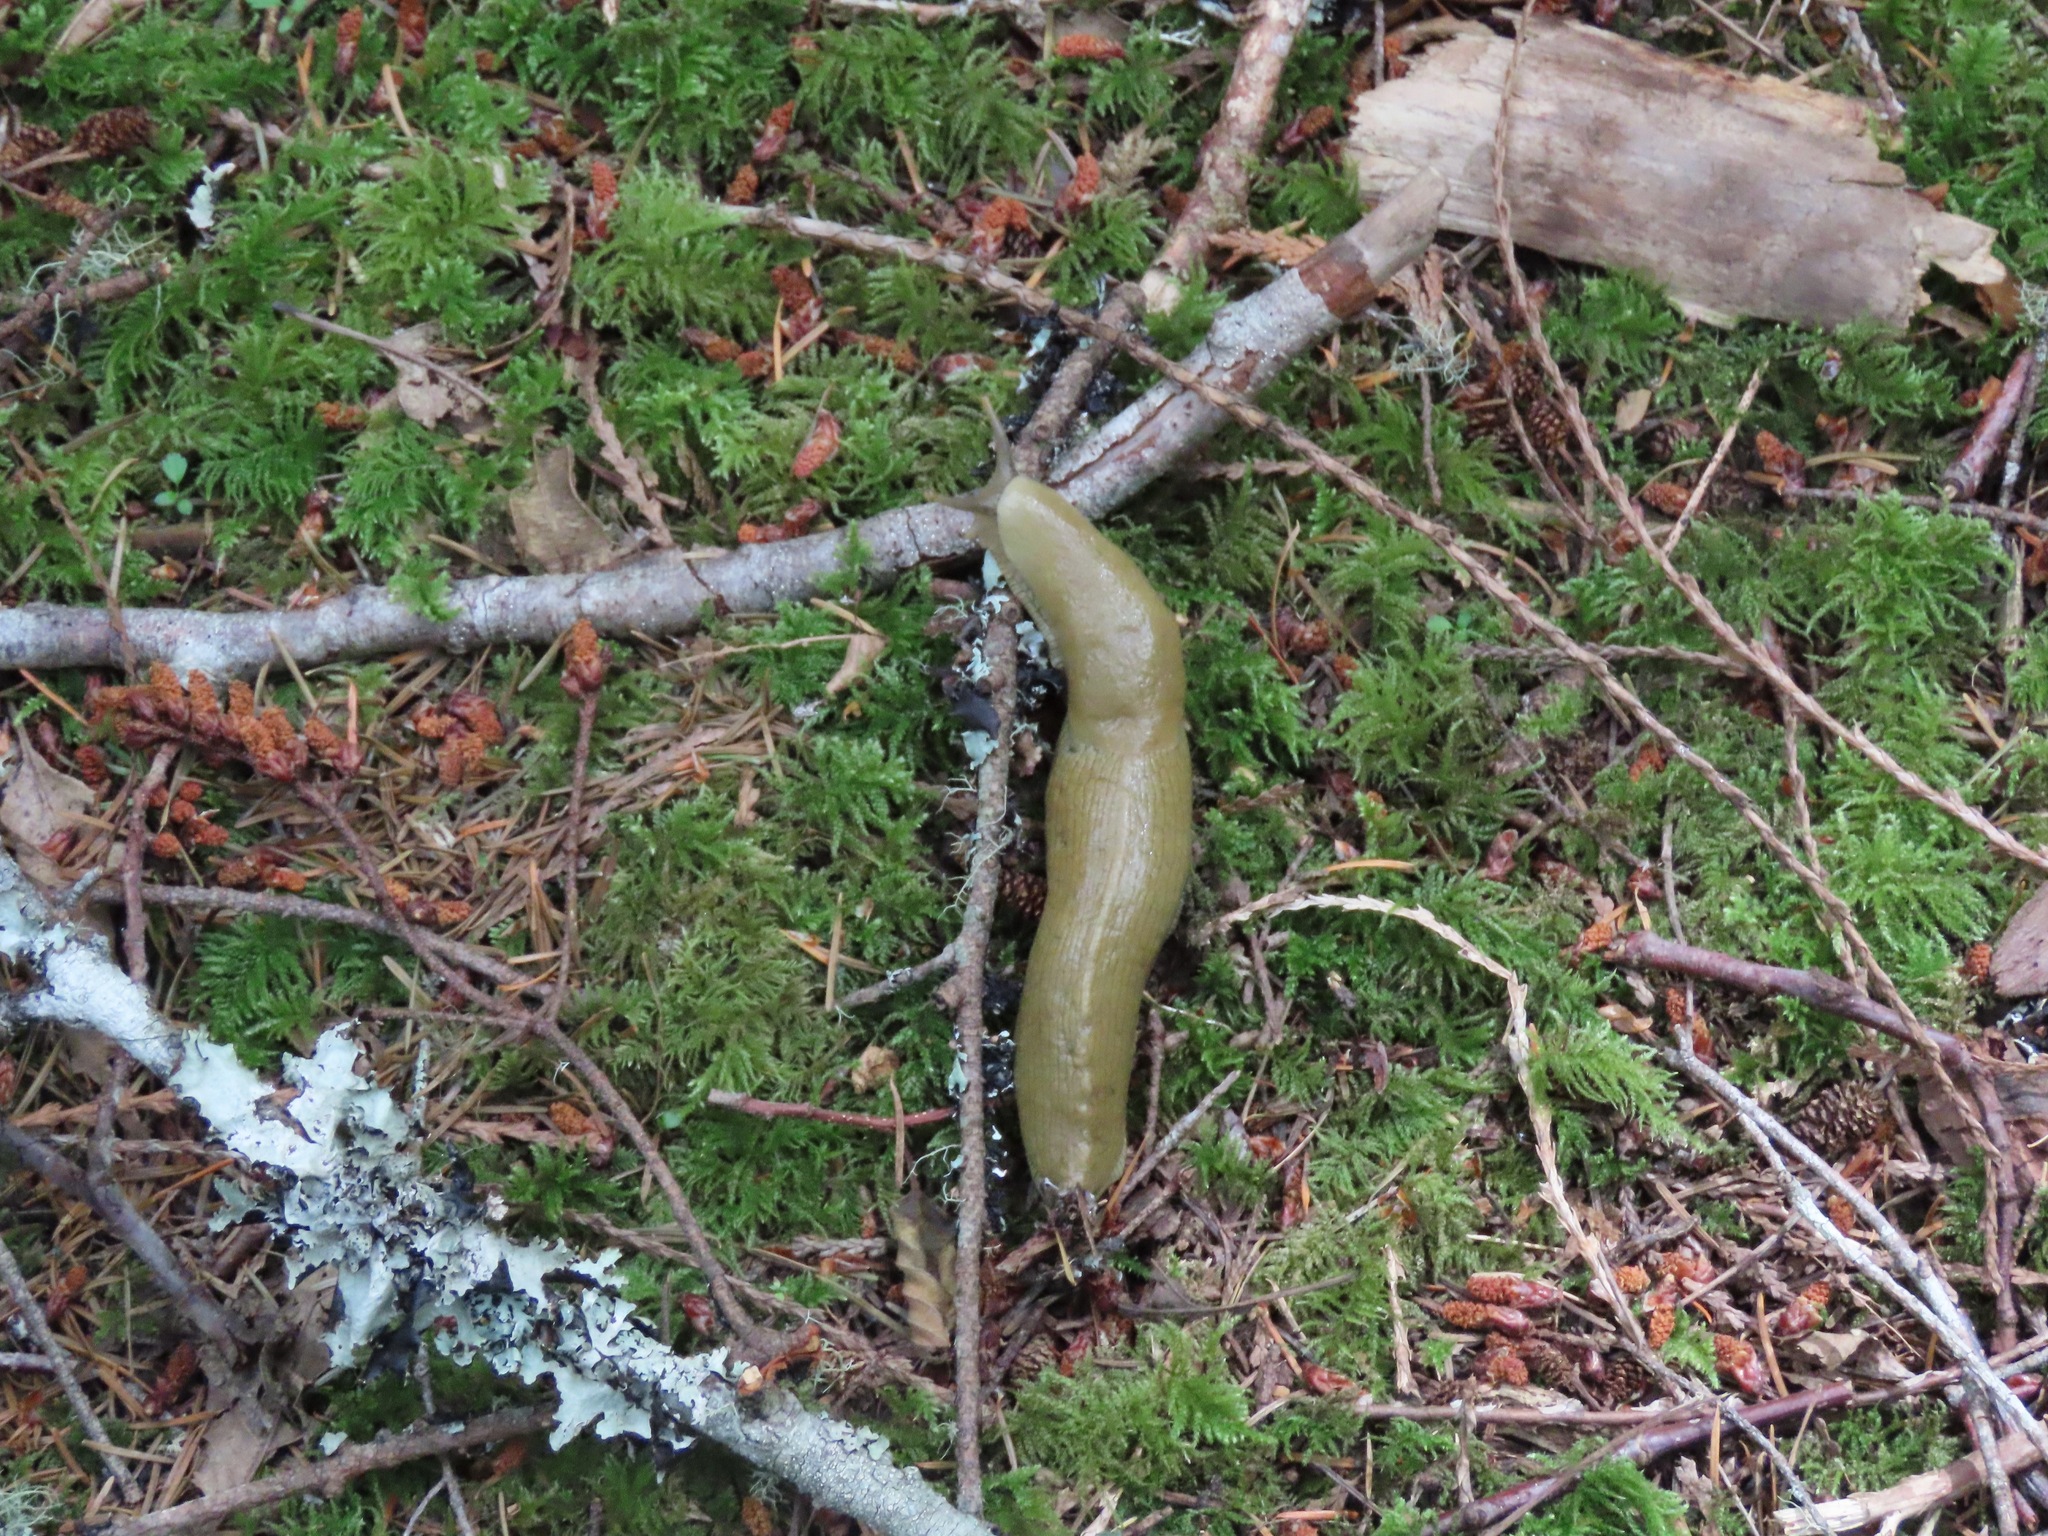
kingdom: Animalia
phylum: Mollusca
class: Gastropoda
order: Stylommatophora
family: Ariolimacidae
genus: Ariolimax
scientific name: Ariolimax columbianus
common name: Pacific banana slug
